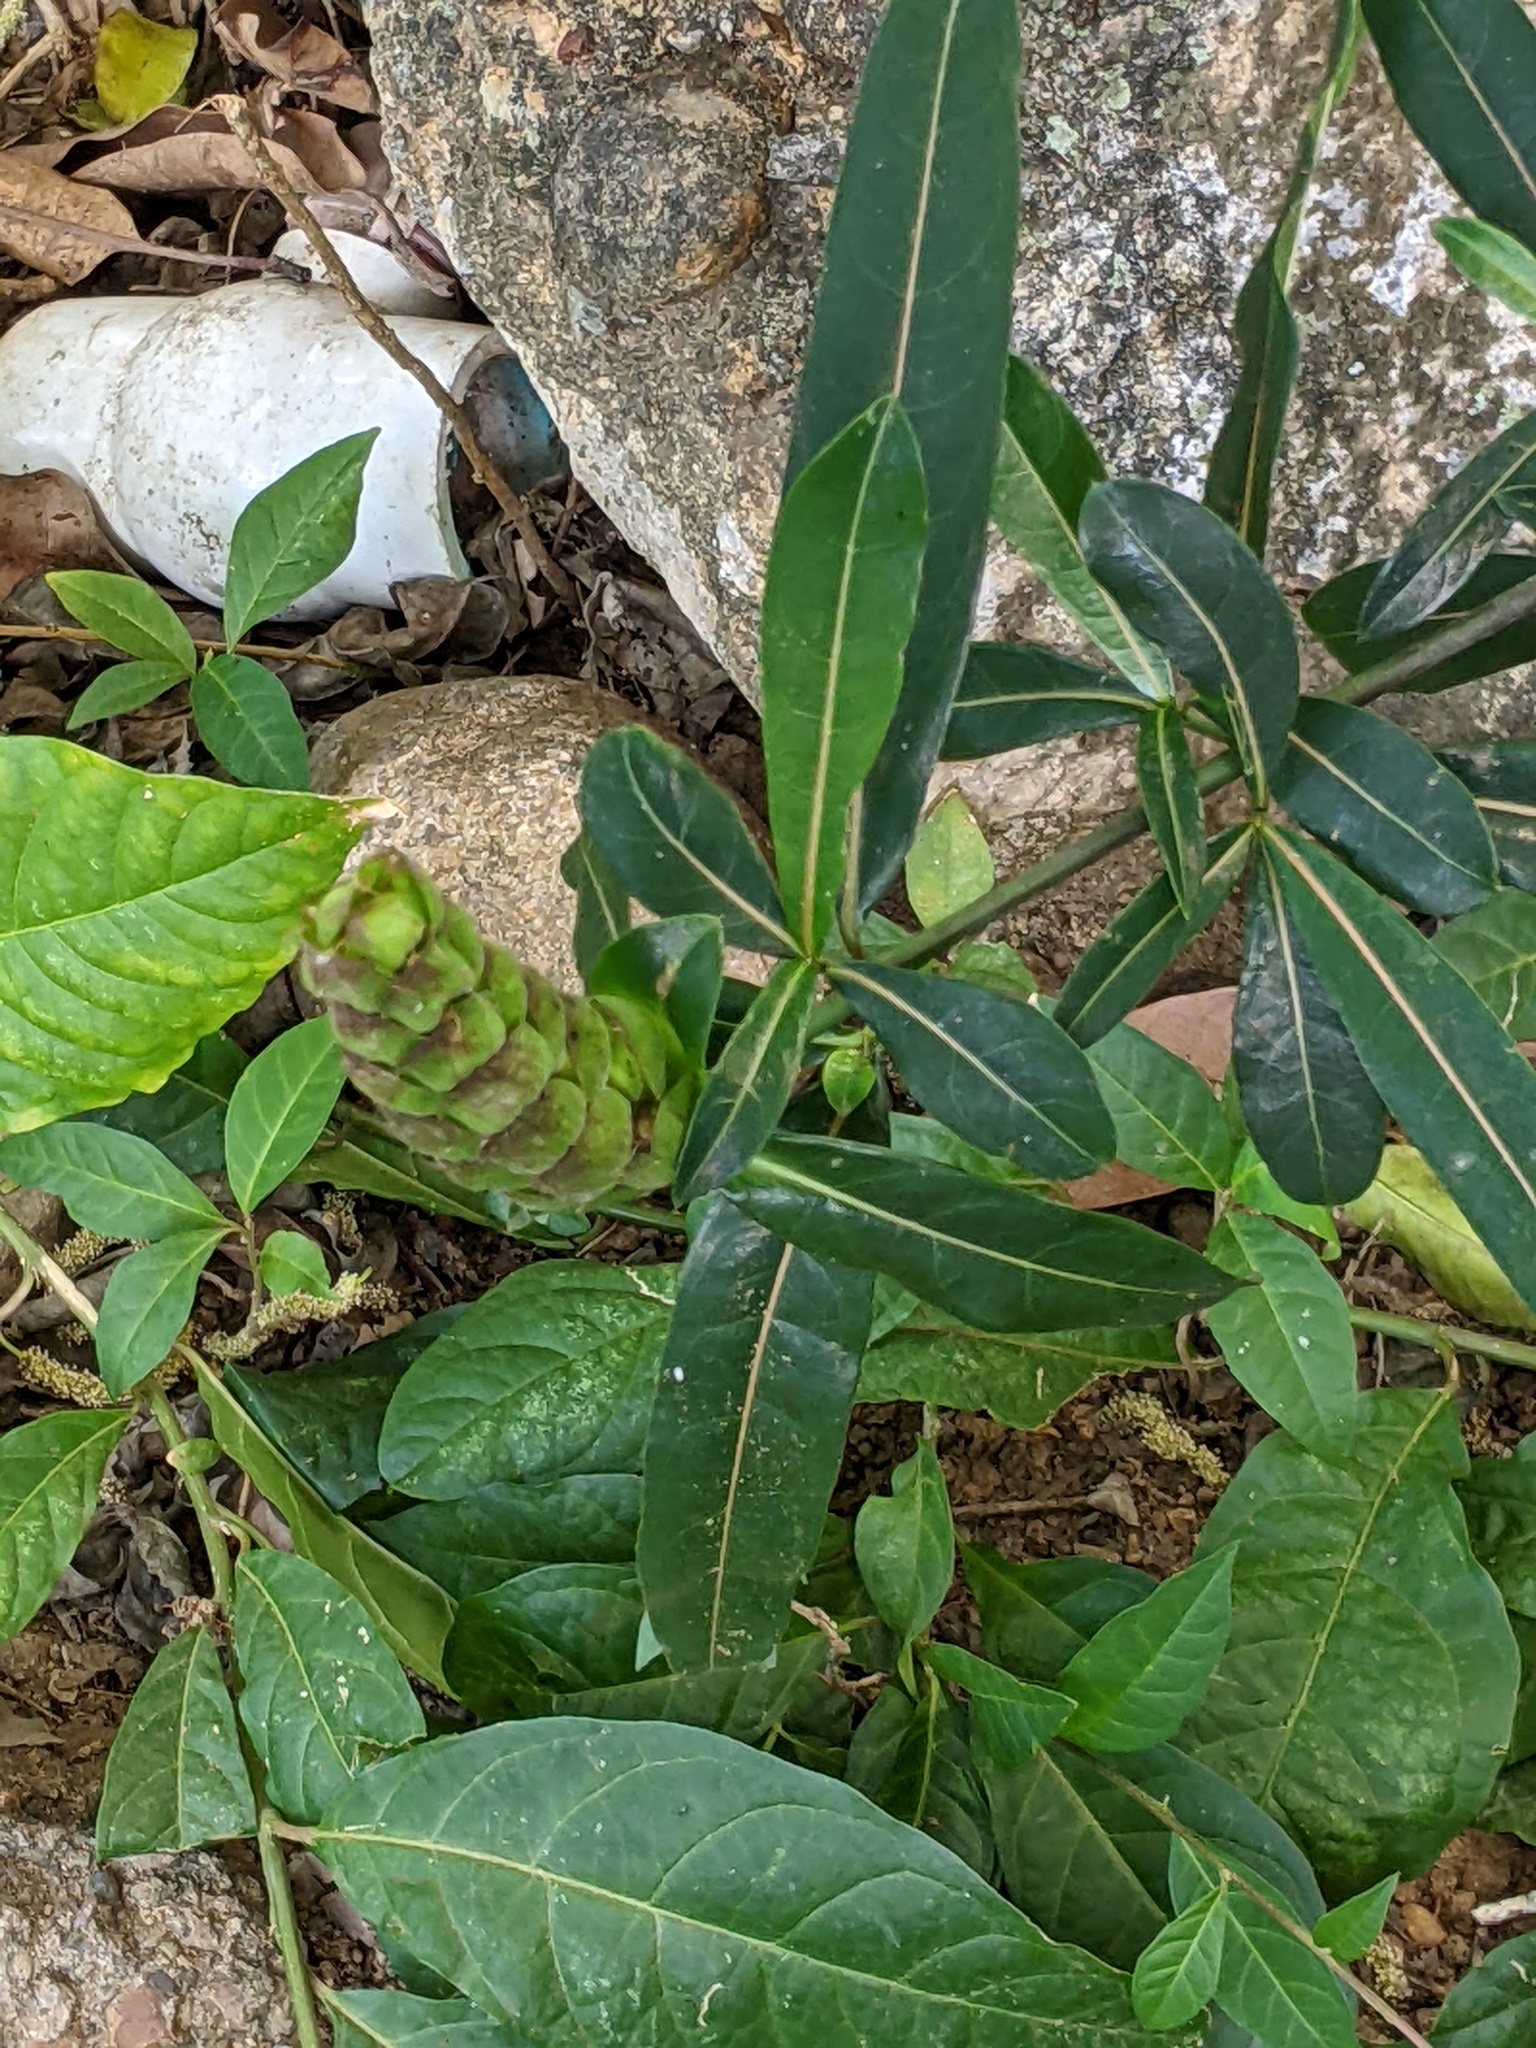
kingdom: Plantae
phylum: Tracheophyta
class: Magnoliopsida
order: Lamiales
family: Acanthaceae
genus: Barleria
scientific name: Barleria lupulina
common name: Hophead philippine violet
